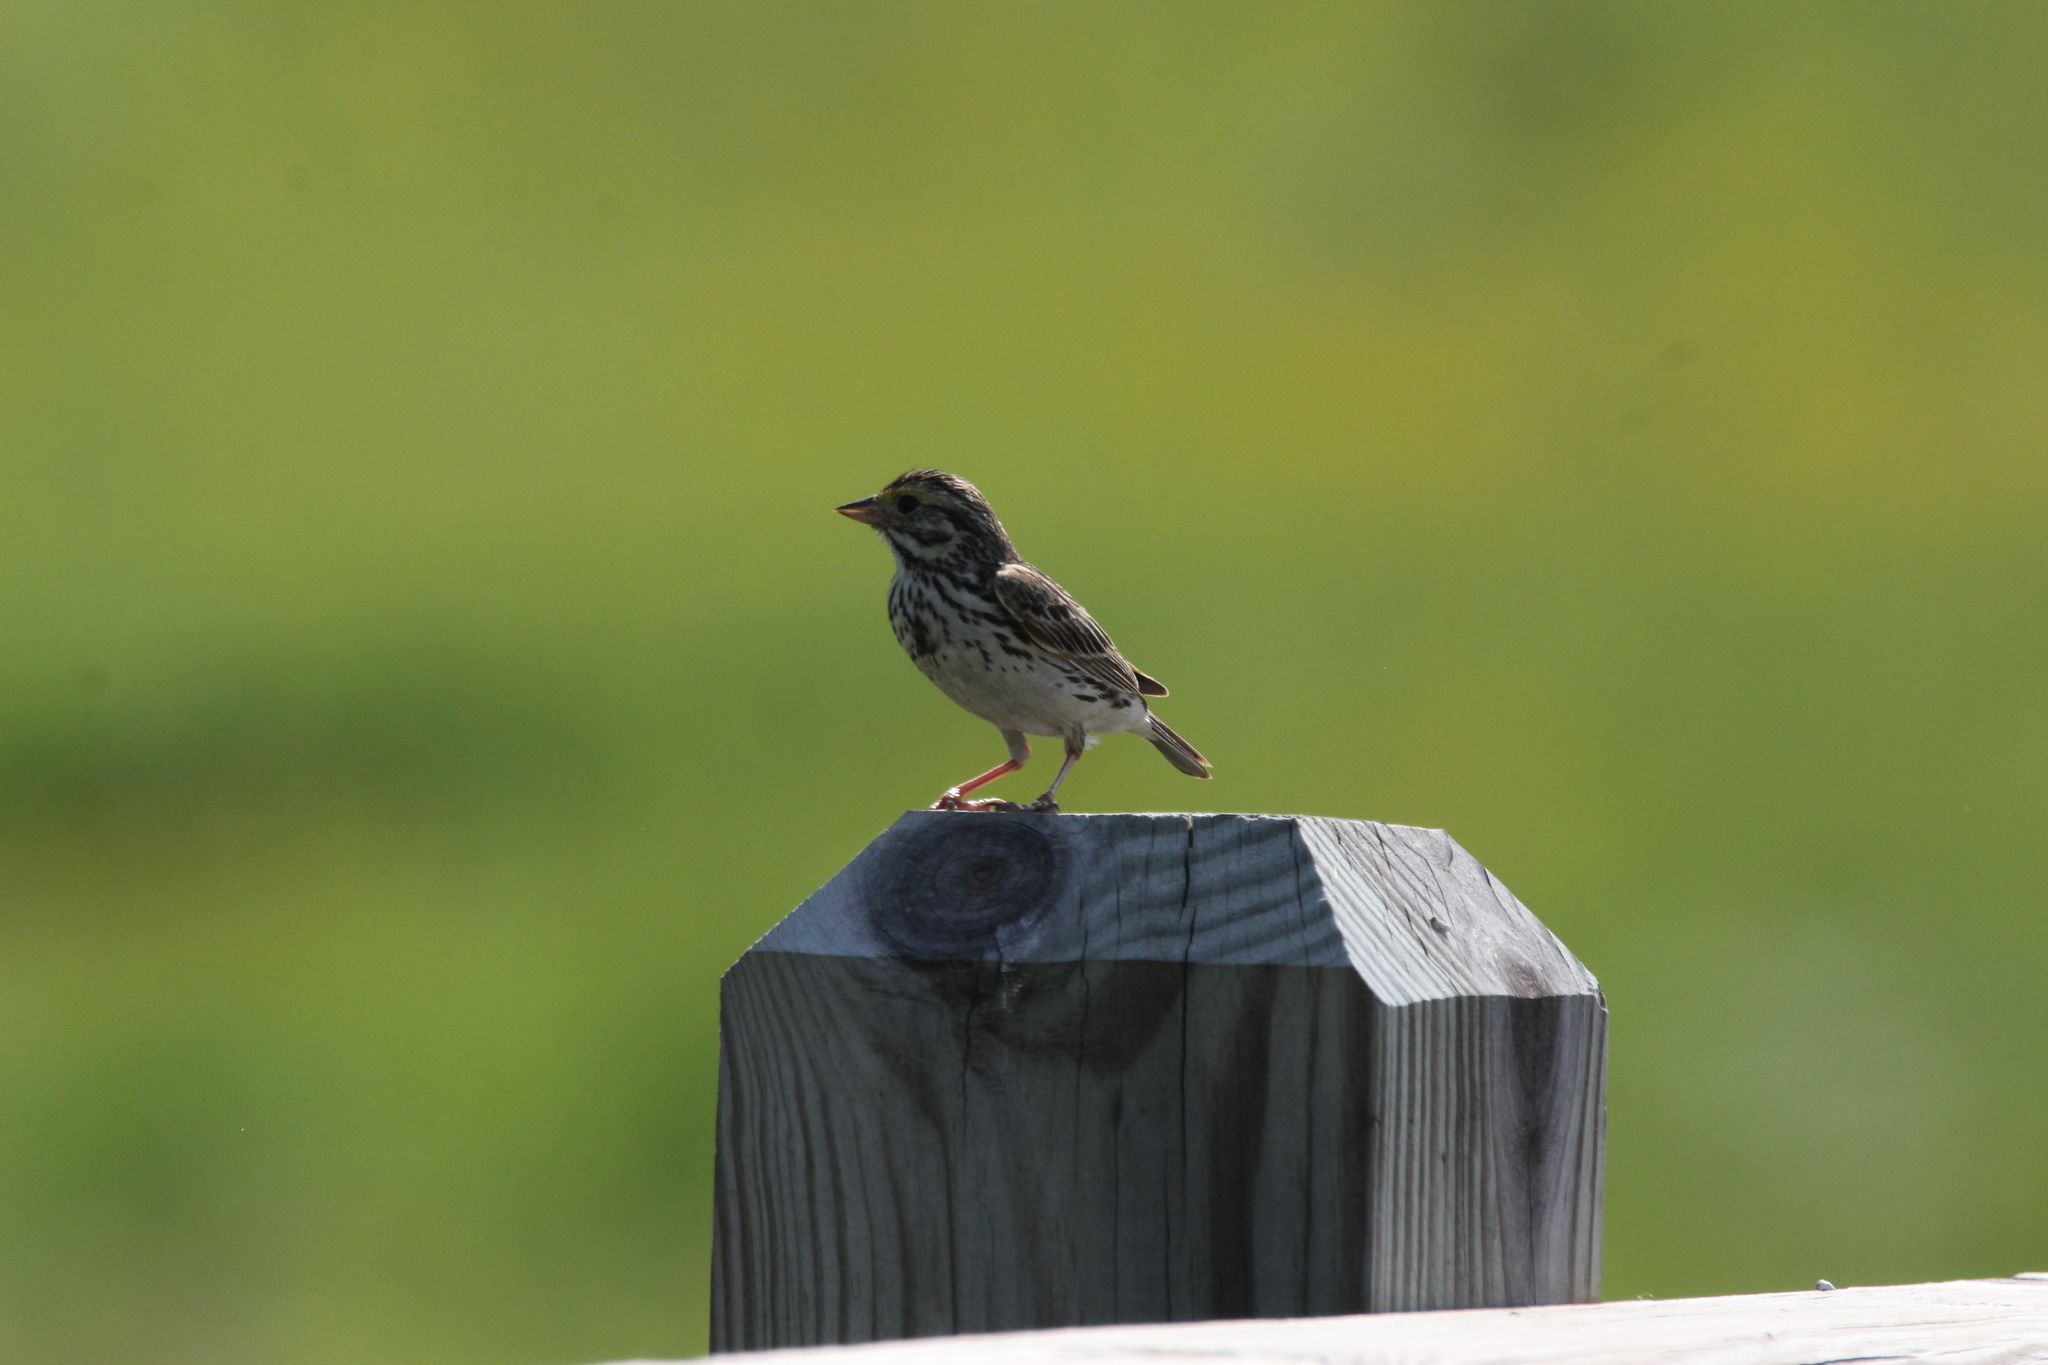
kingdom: Animalia
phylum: Chordata
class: Aves
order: Passeriformes
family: Passerellidae
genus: Passerculus
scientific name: Passerculus sandwichensis
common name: Savannah sparrow
